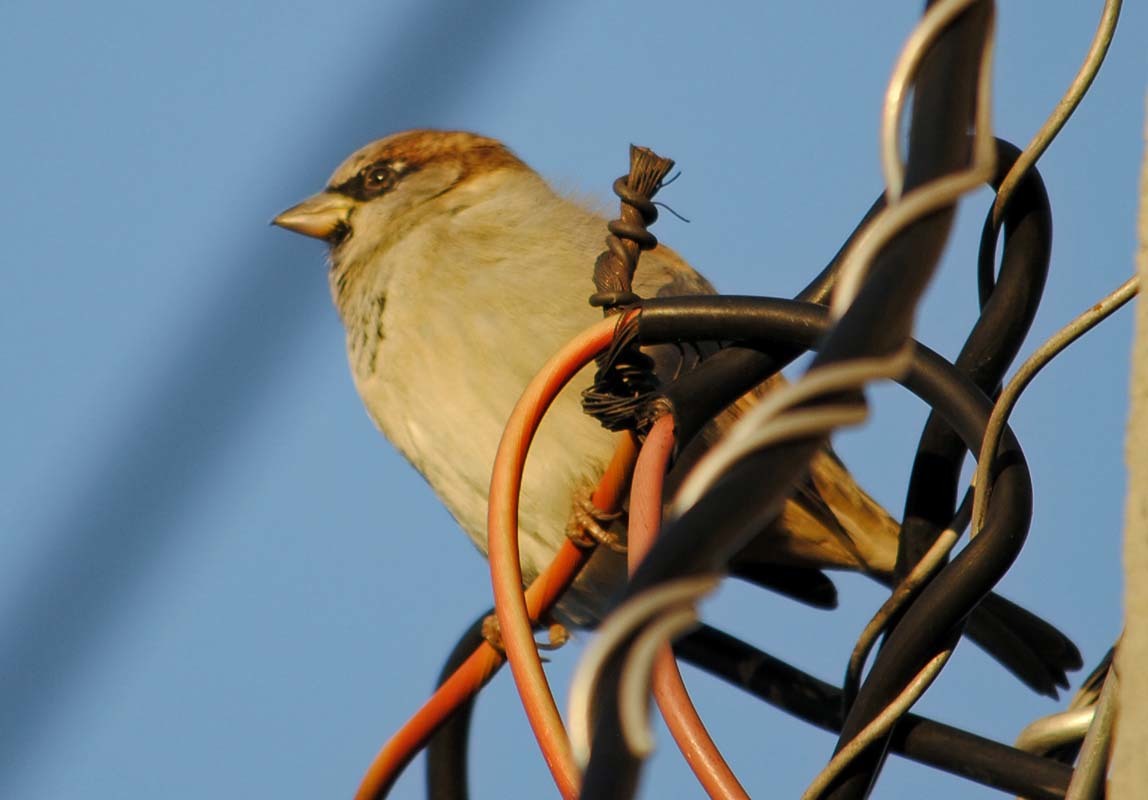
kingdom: Animalia
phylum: Chordata
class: Aves
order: Passeriformes
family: Passeridae
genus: Passer
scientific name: Passer domesticus
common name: House sparrow
